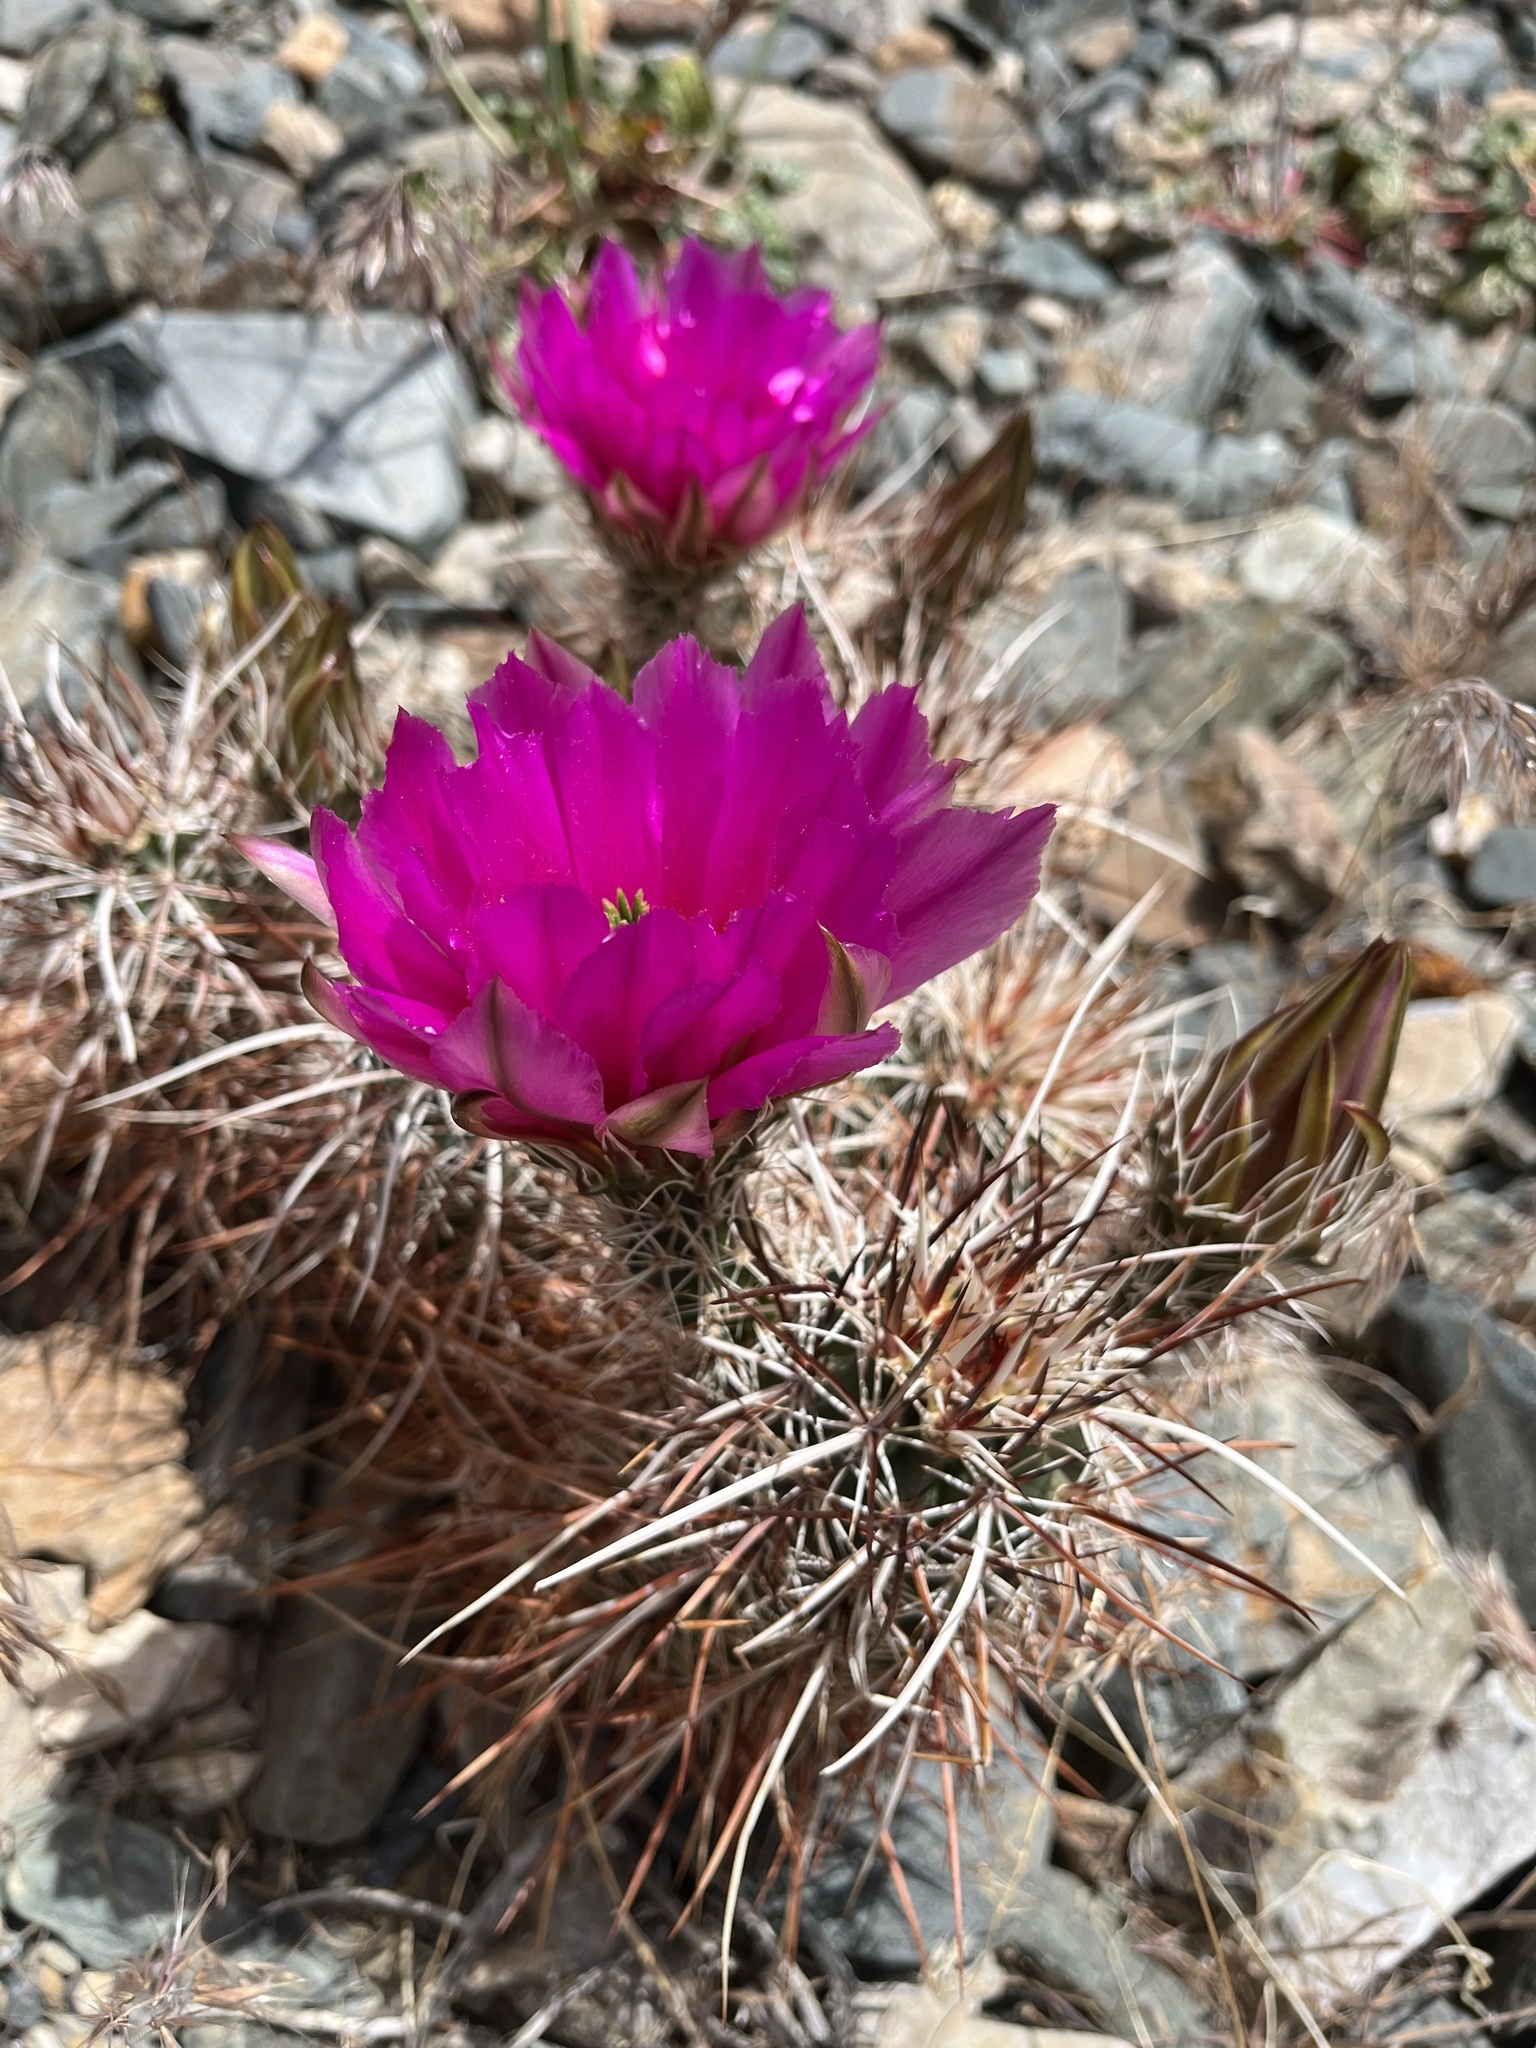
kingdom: Plantae
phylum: Tracheophyta
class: Magnoliopsida
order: Caryophyllales
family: Cactaceae
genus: Echinocereus
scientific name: Echinocereus engelmannii
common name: Engelmann's hedgehog cactus
